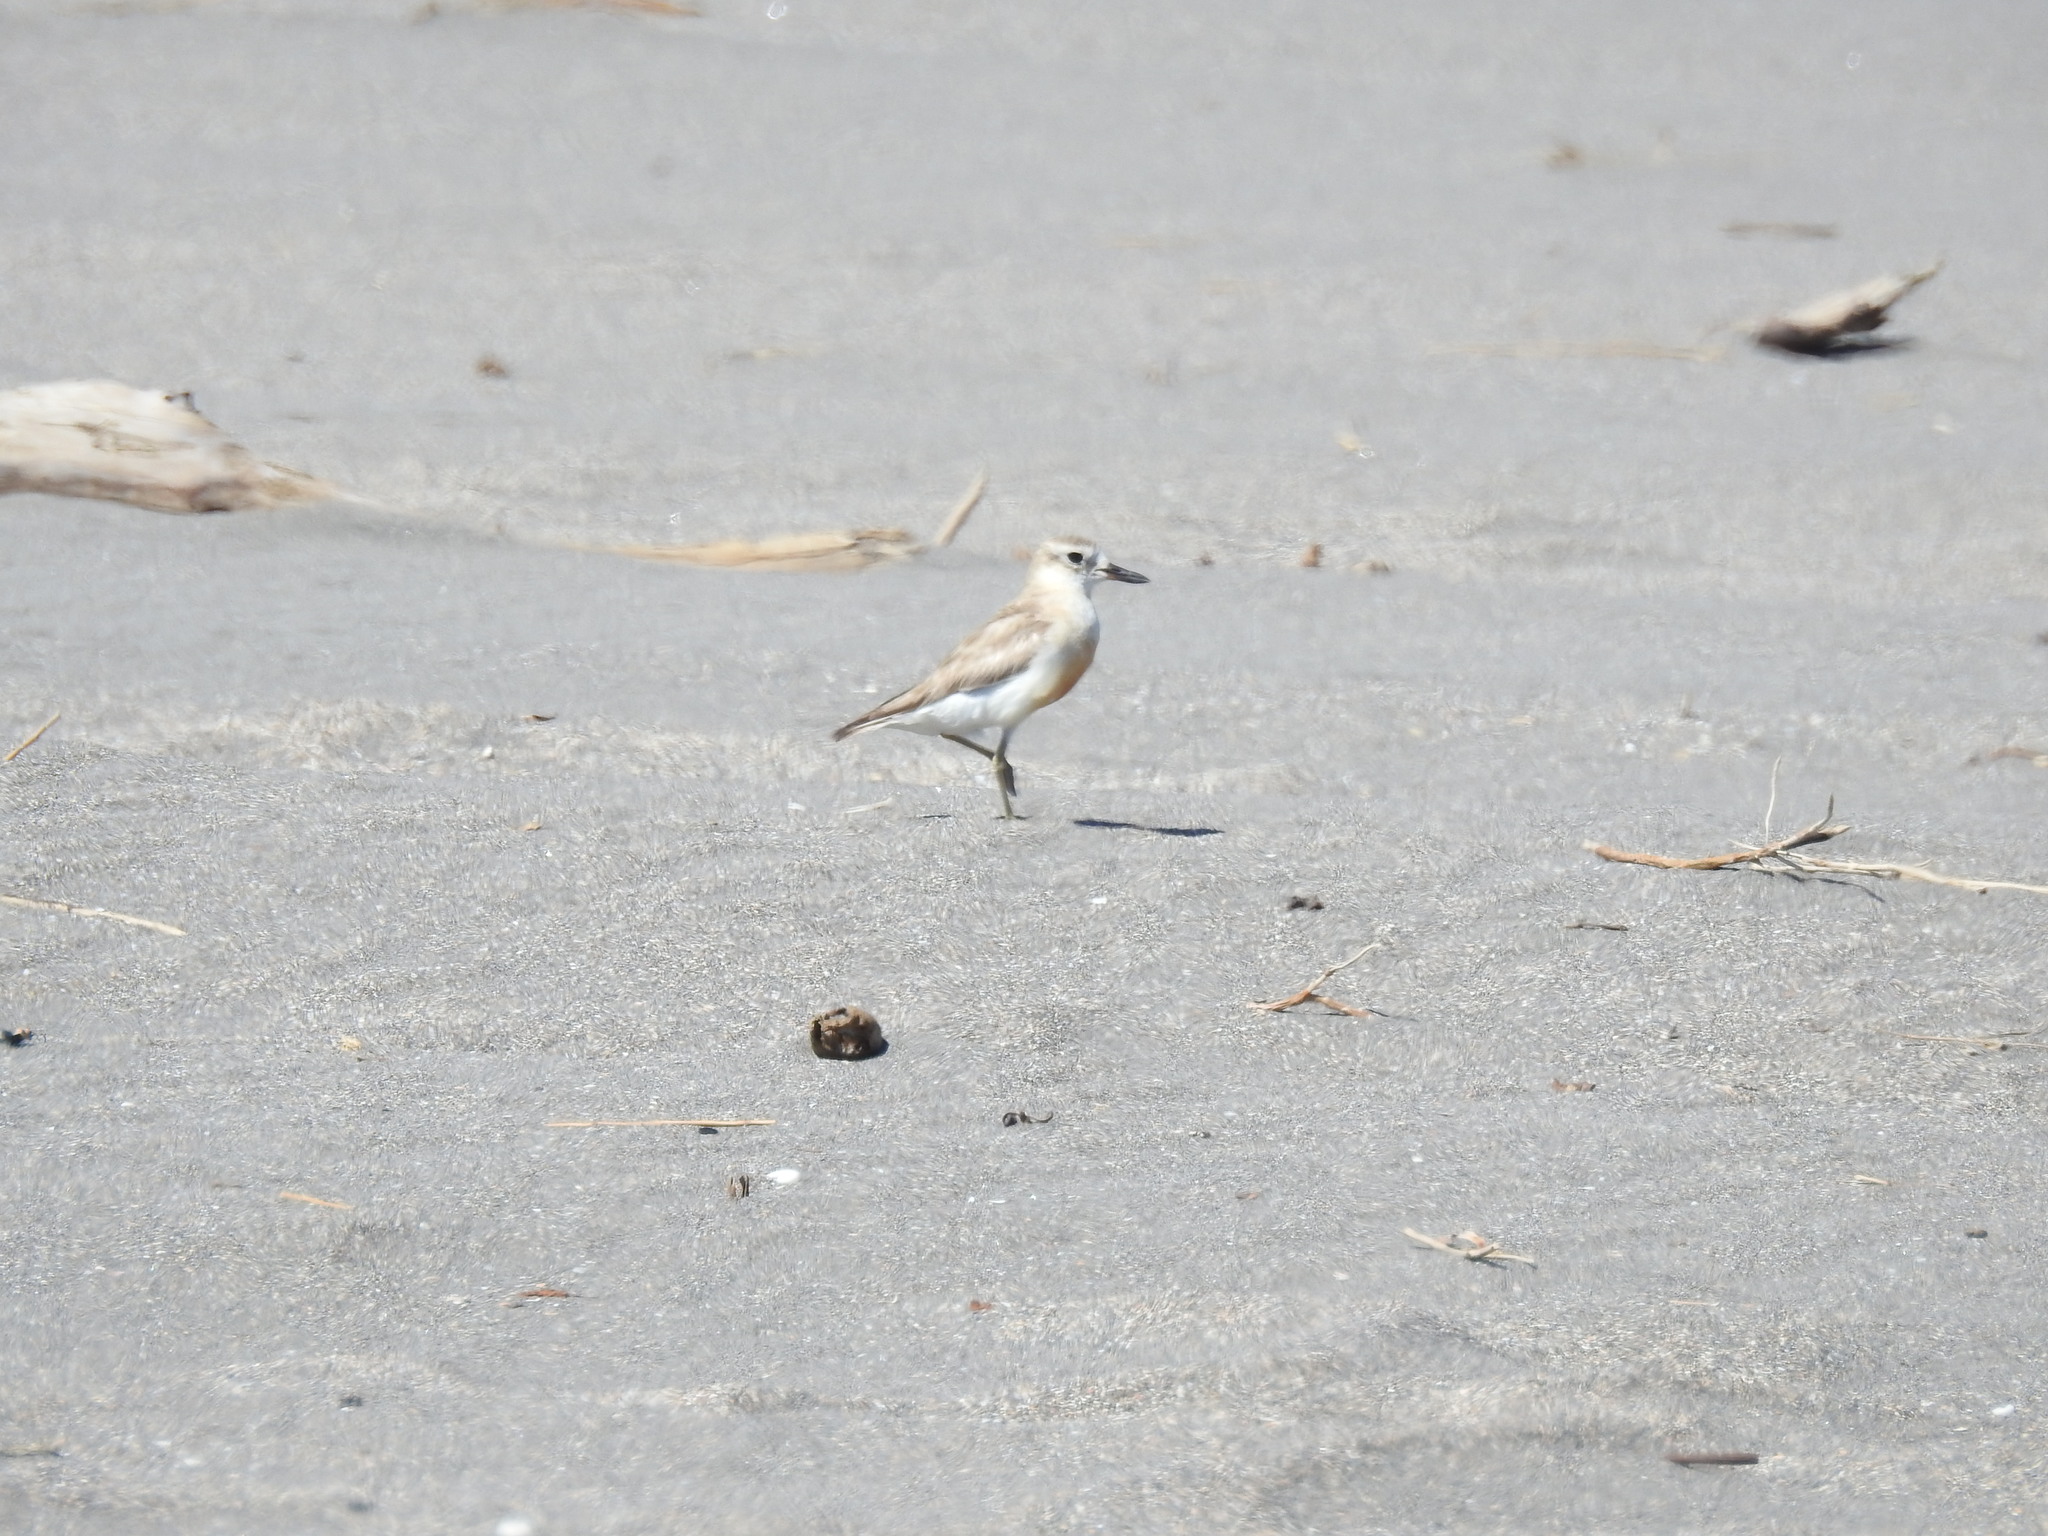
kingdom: Animalia
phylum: Chordata
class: Aves
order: Charadriiformes
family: Charadriidae
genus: Anarhynchus
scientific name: Anarhynchus
